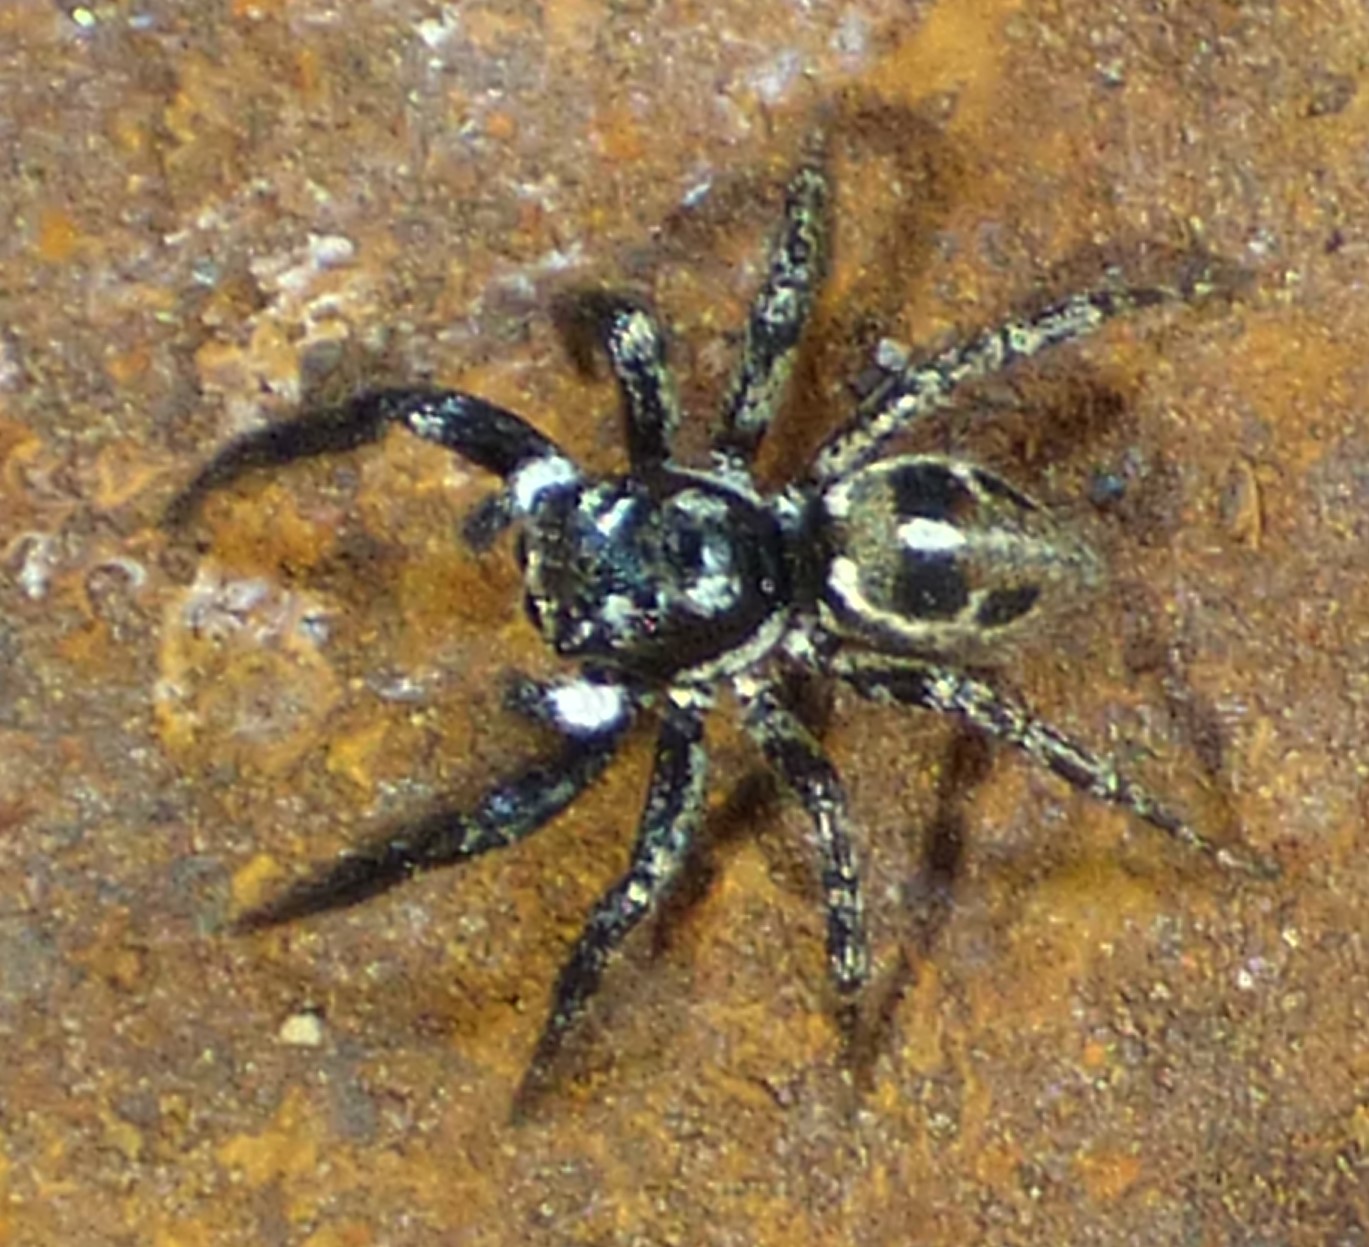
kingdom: Animalia
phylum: Arthropoda
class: Arachnida
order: Araneae
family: Salticidae
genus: Anasaitis
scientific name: Anasaitis canosa
